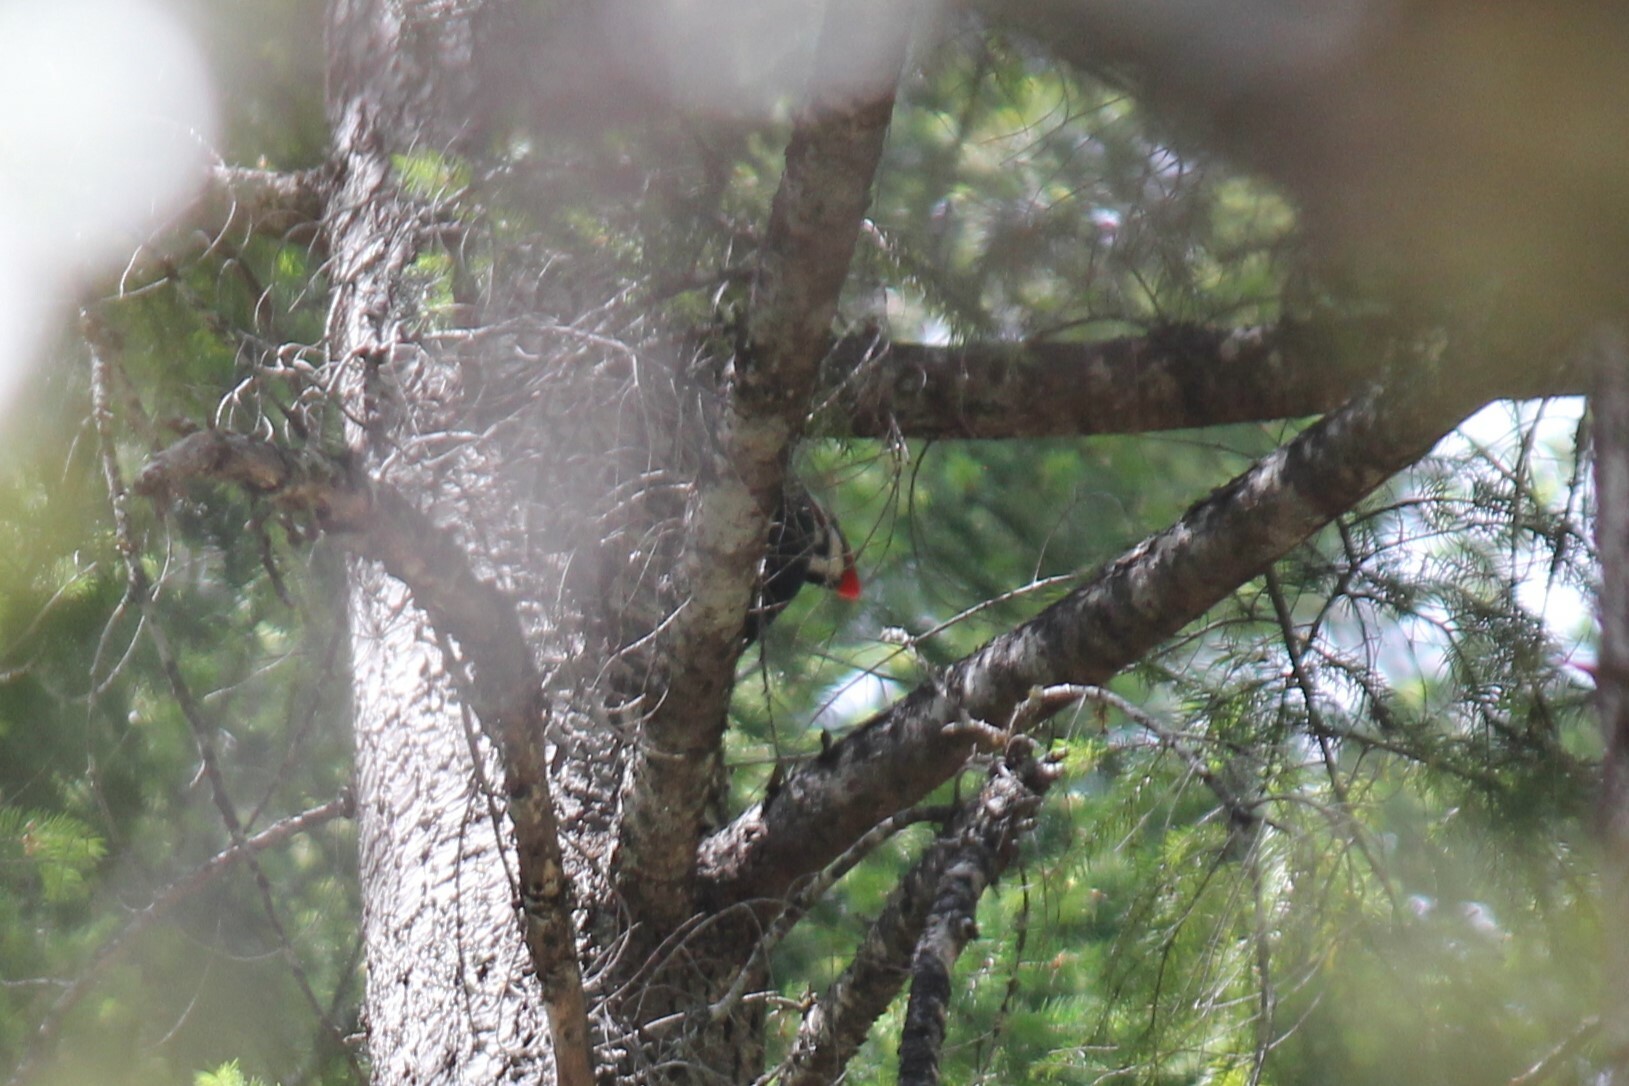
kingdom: Animalia
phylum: Chordata
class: Aves
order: Piciformes
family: Picidae
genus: Dryocopus
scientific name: Dryocopus pileatus
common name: Pileated woodpecker
